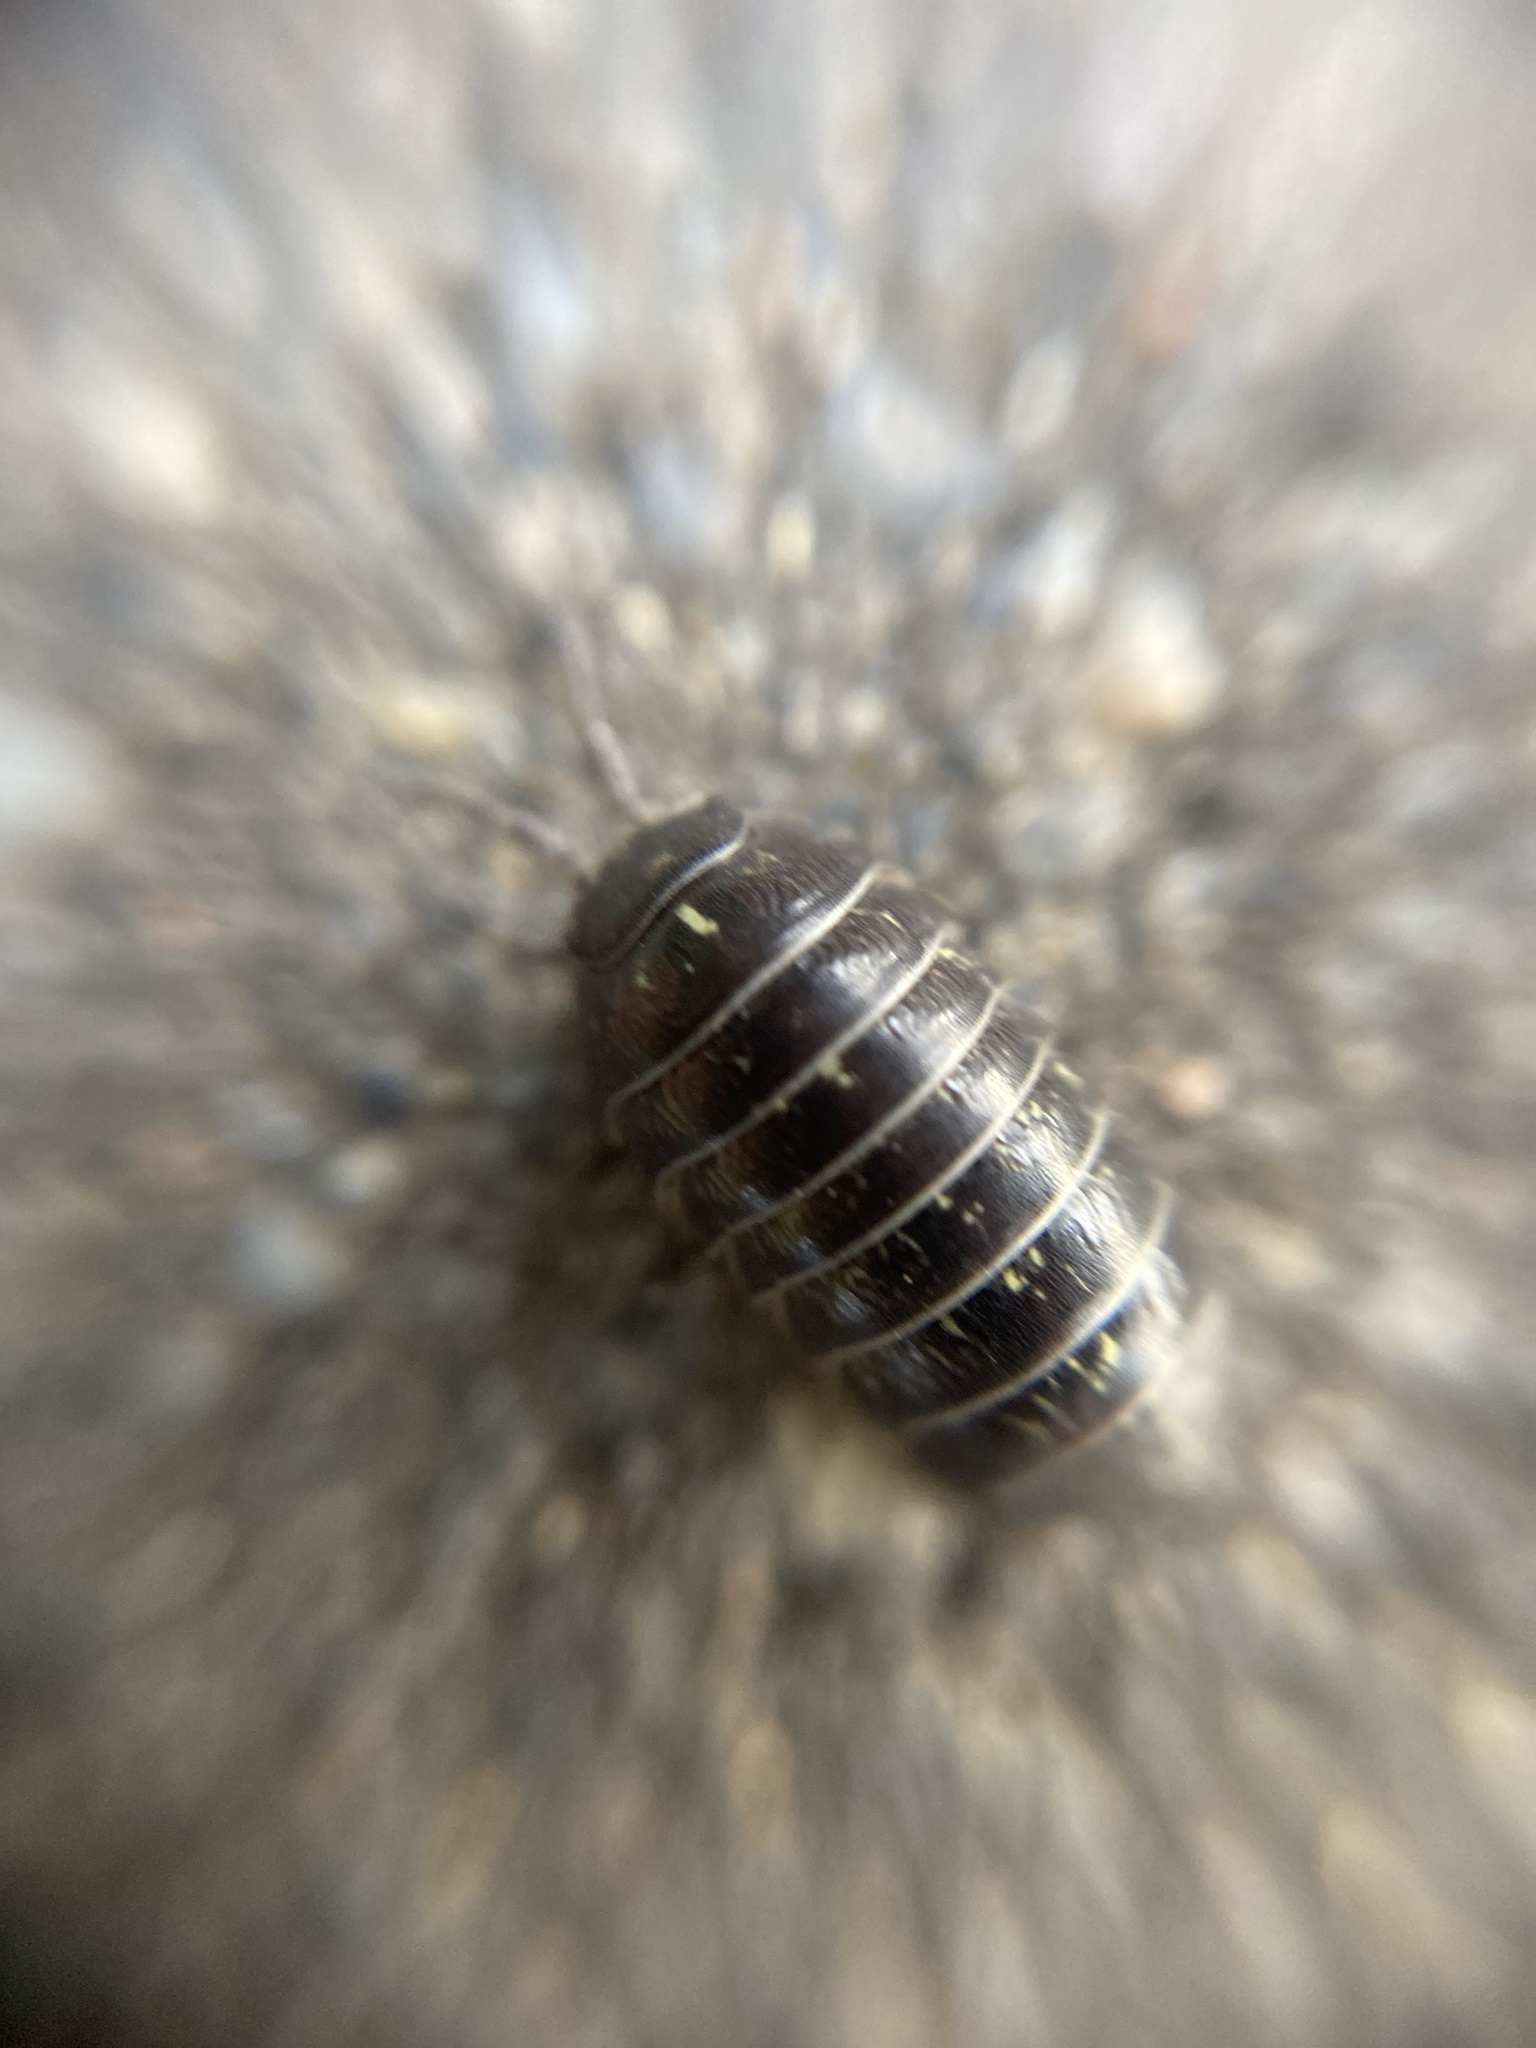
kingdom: Animalia
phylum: Arthropoda
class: Malacostraca
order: Isopoda
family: Armadillidiidae
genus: Armadillidium
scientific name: Armadillidium vulgare
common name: Common pill woodlouse
